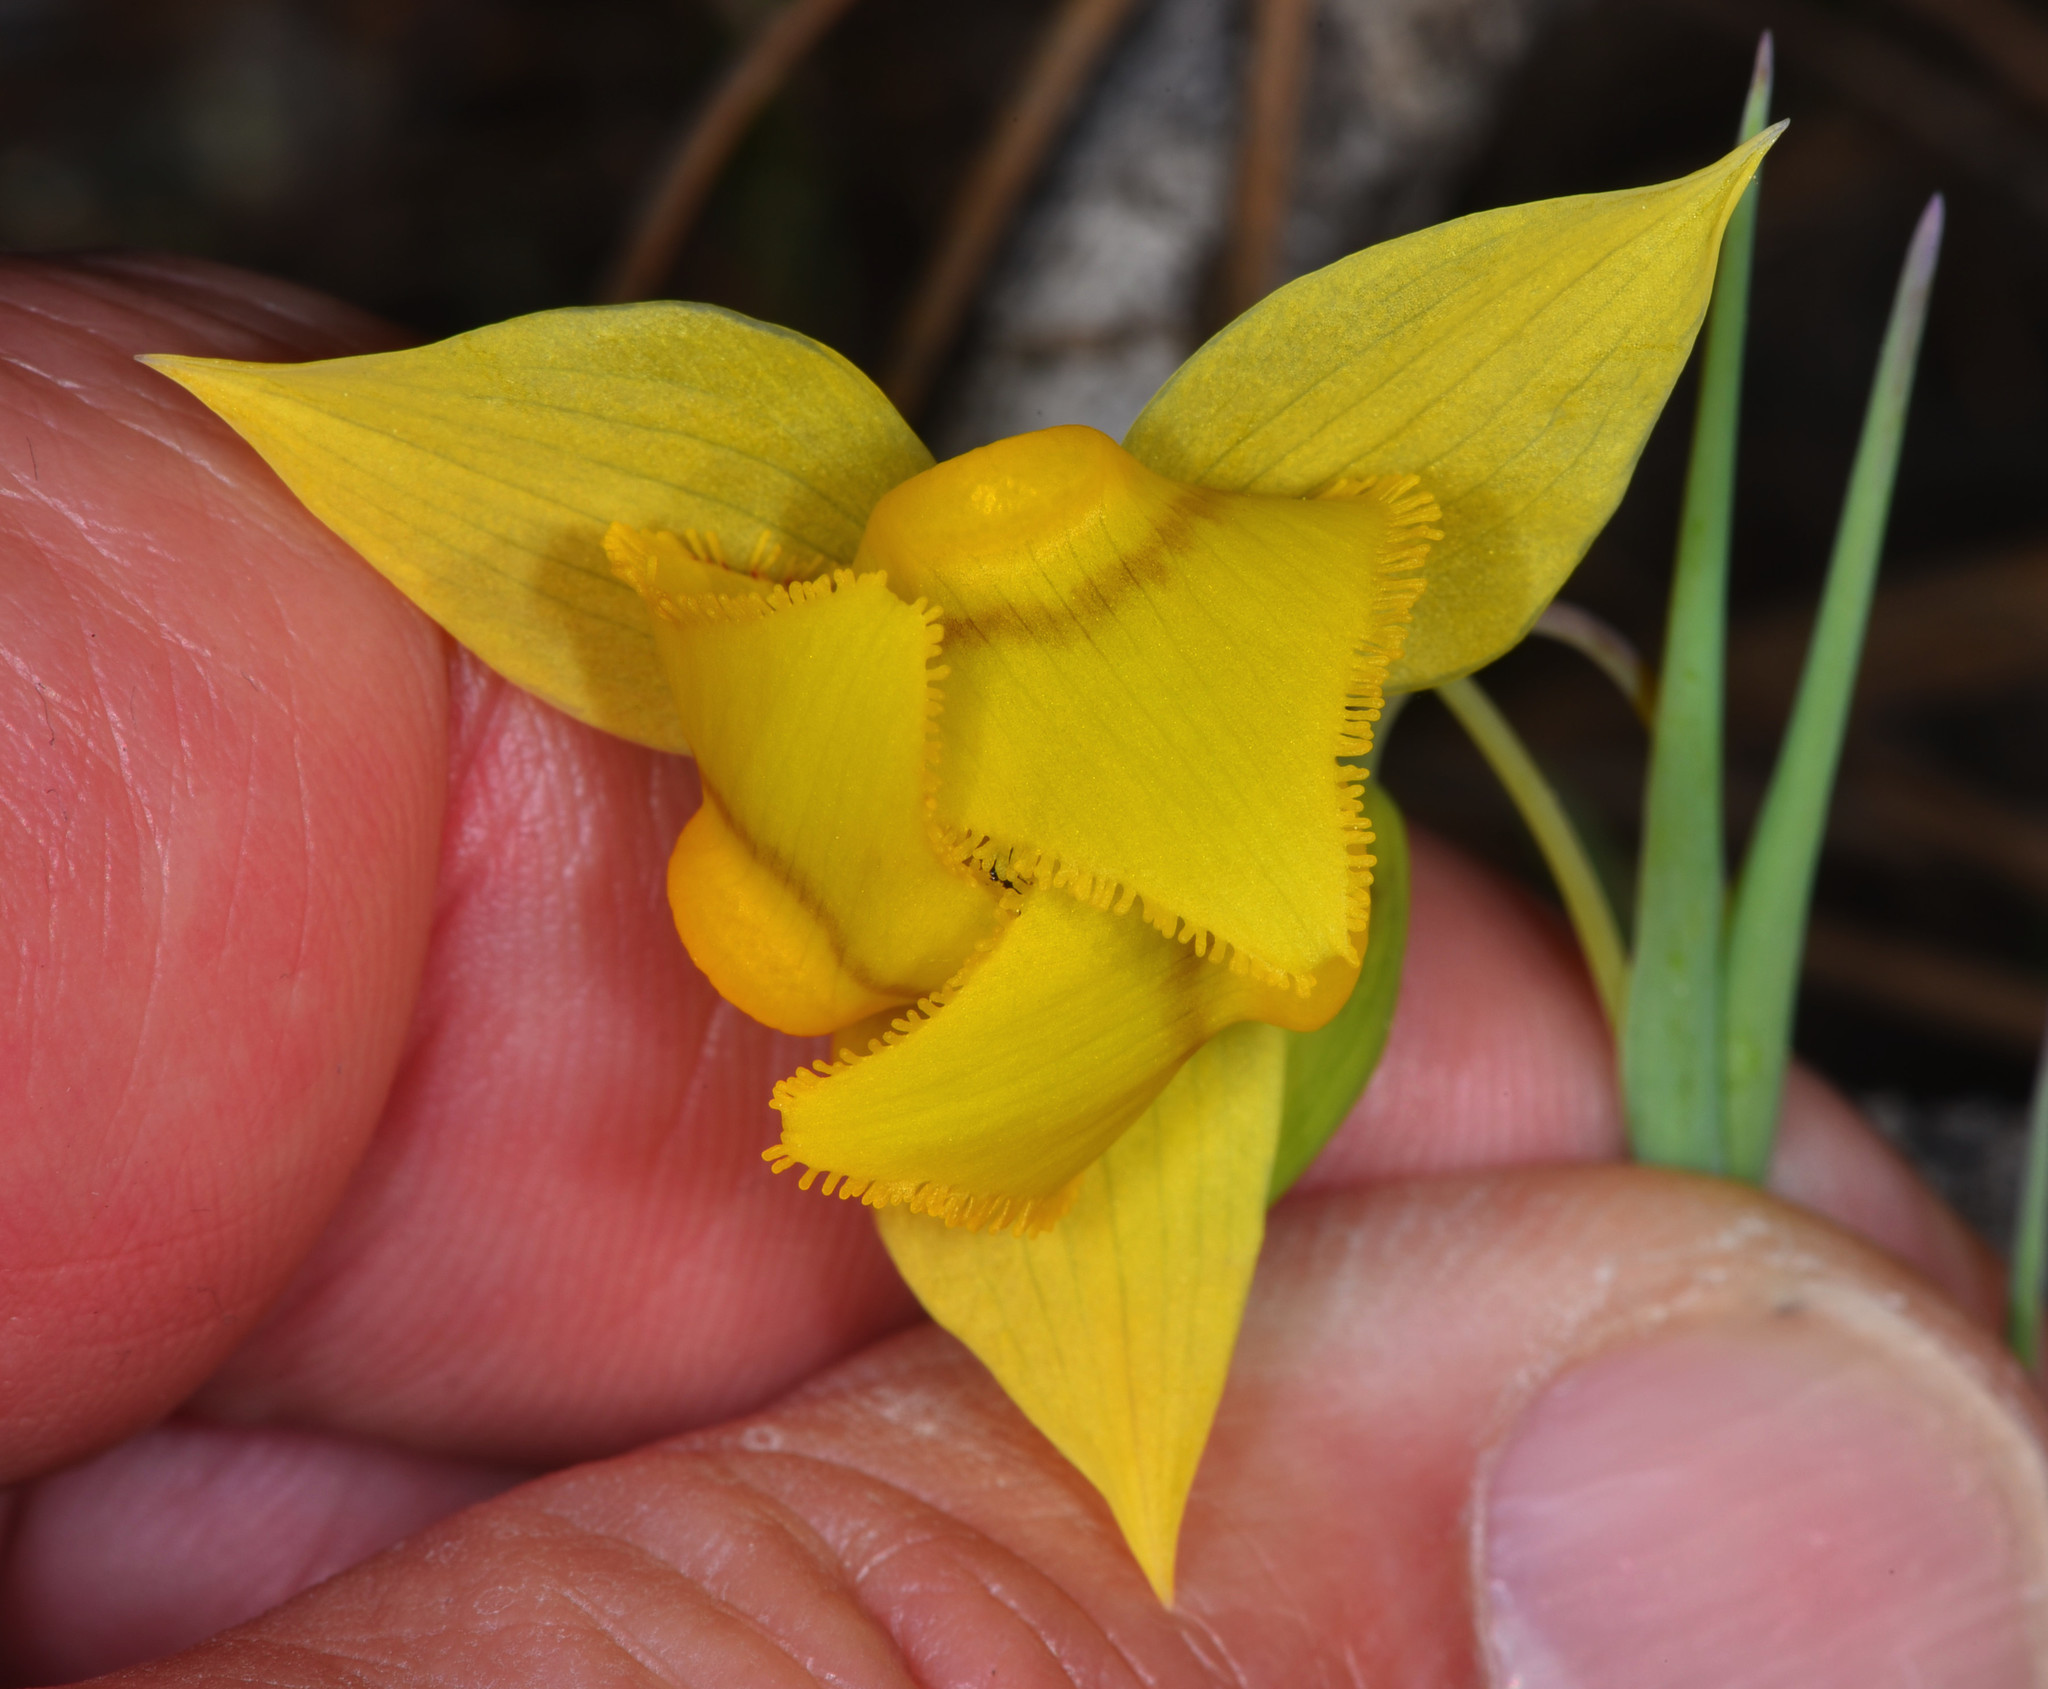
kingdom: Plantae
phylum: Tracheophyta
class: Liliopsida
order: Liliales
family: Liliaceae
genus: Calochortus
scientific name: Calochortus amabilis
